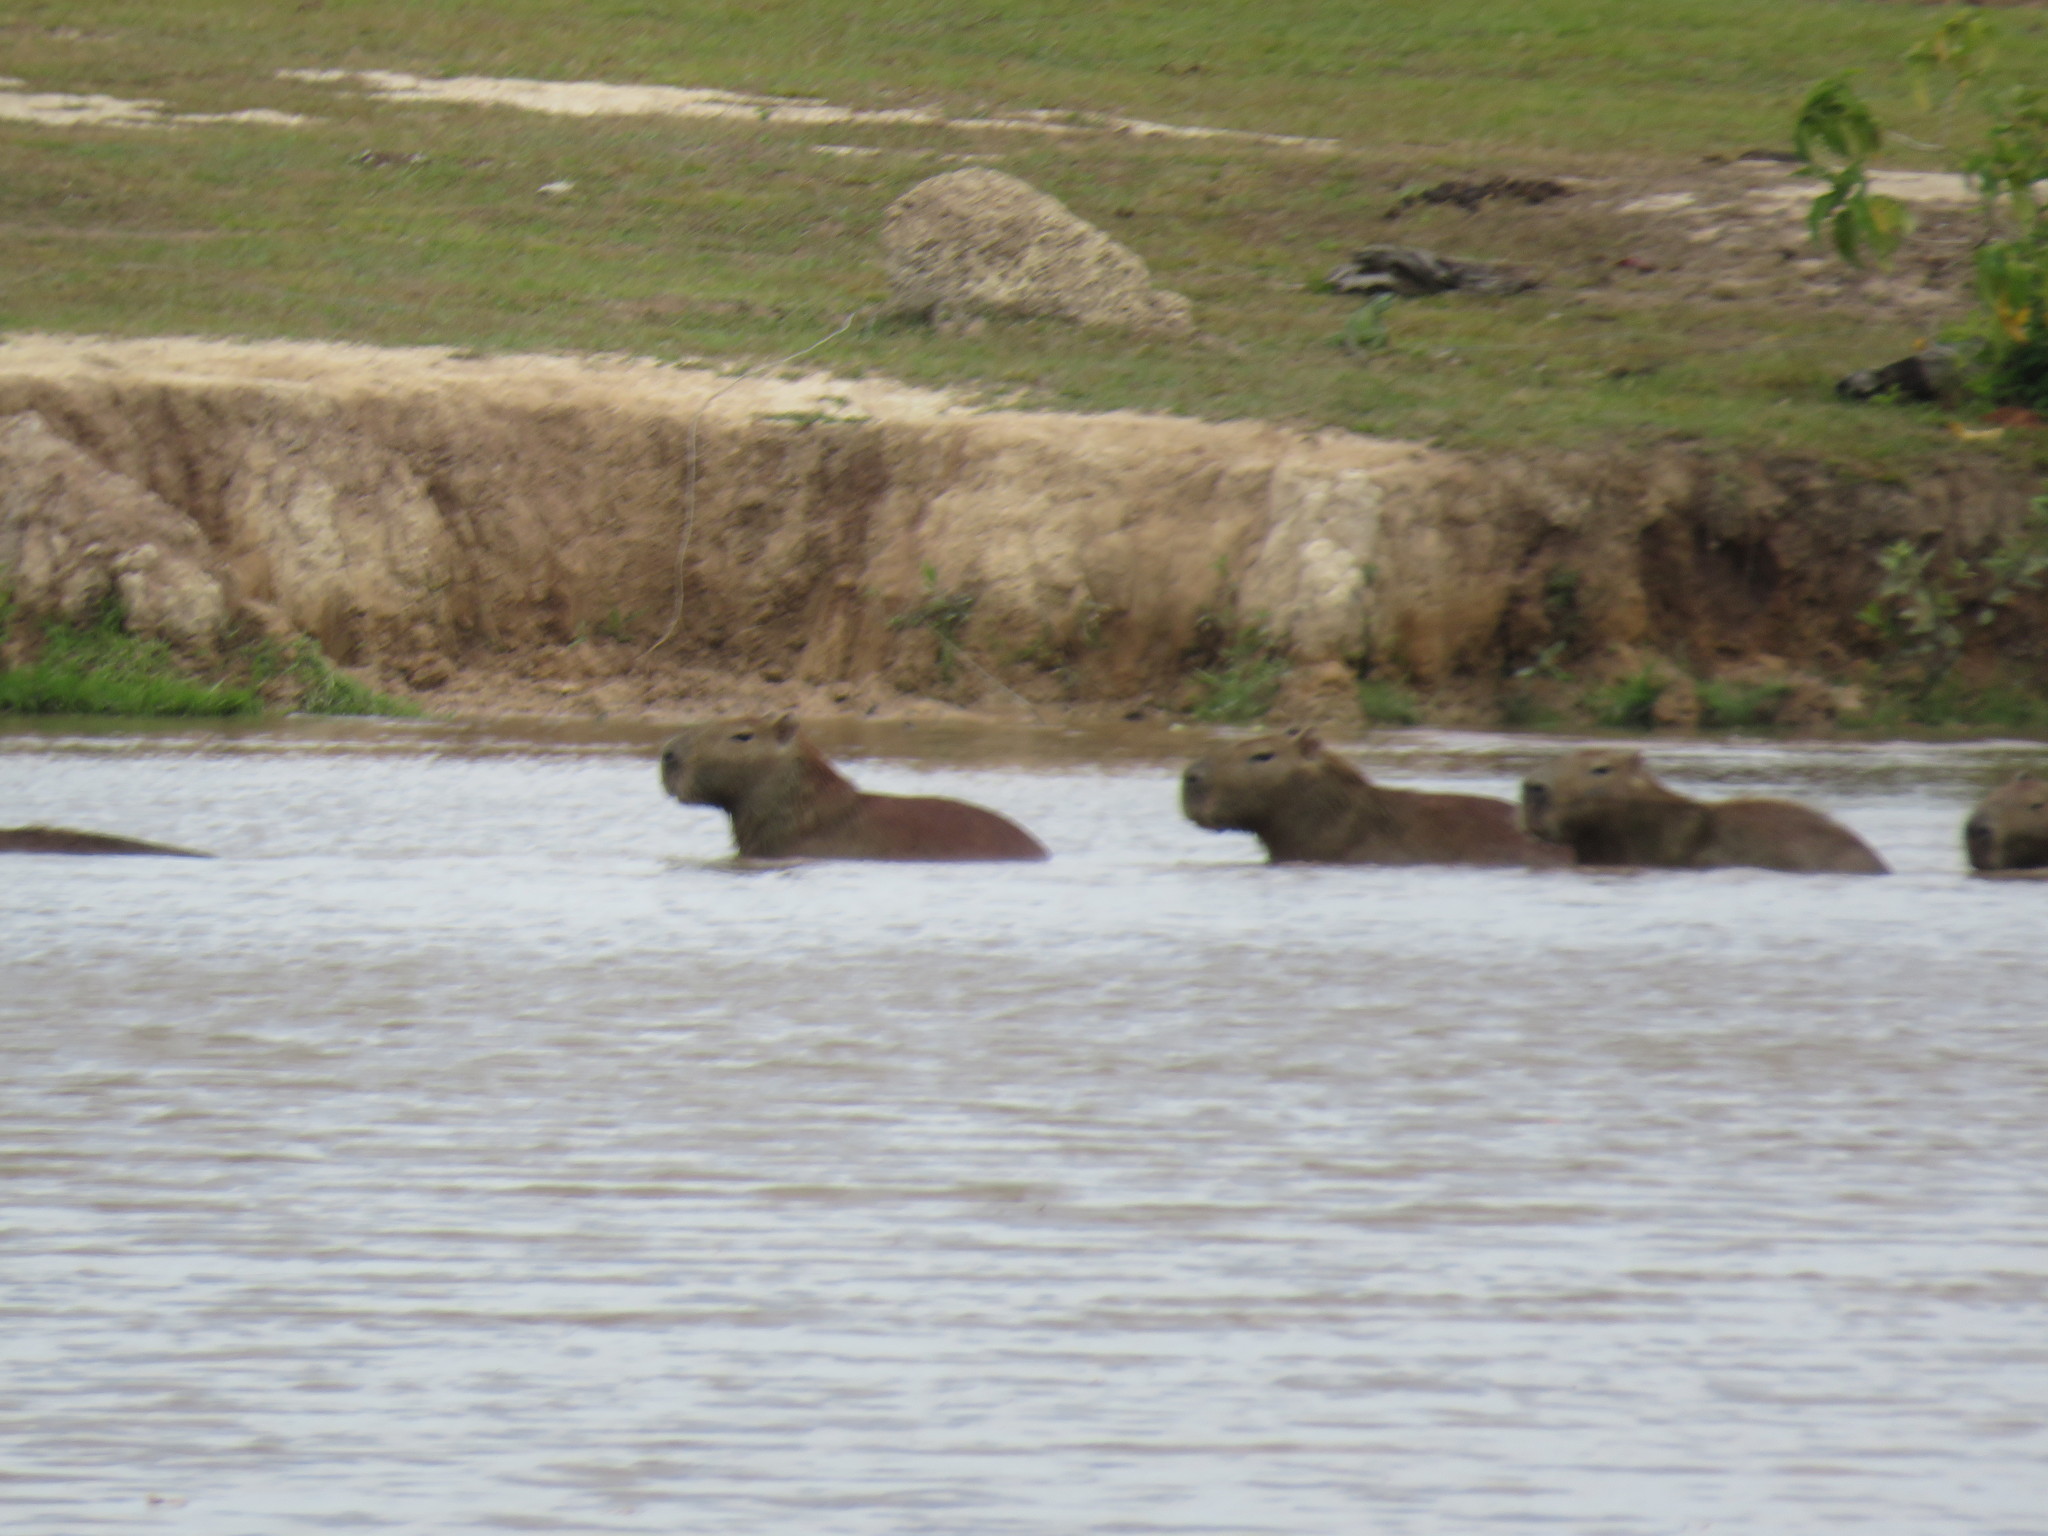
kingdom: Animalia
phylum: Chordata
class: Mammalia
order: Rodentia
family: Caviidae
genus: Hydrochoerus
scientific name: Hydrochoerus hydrochaeris
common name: Capybara
